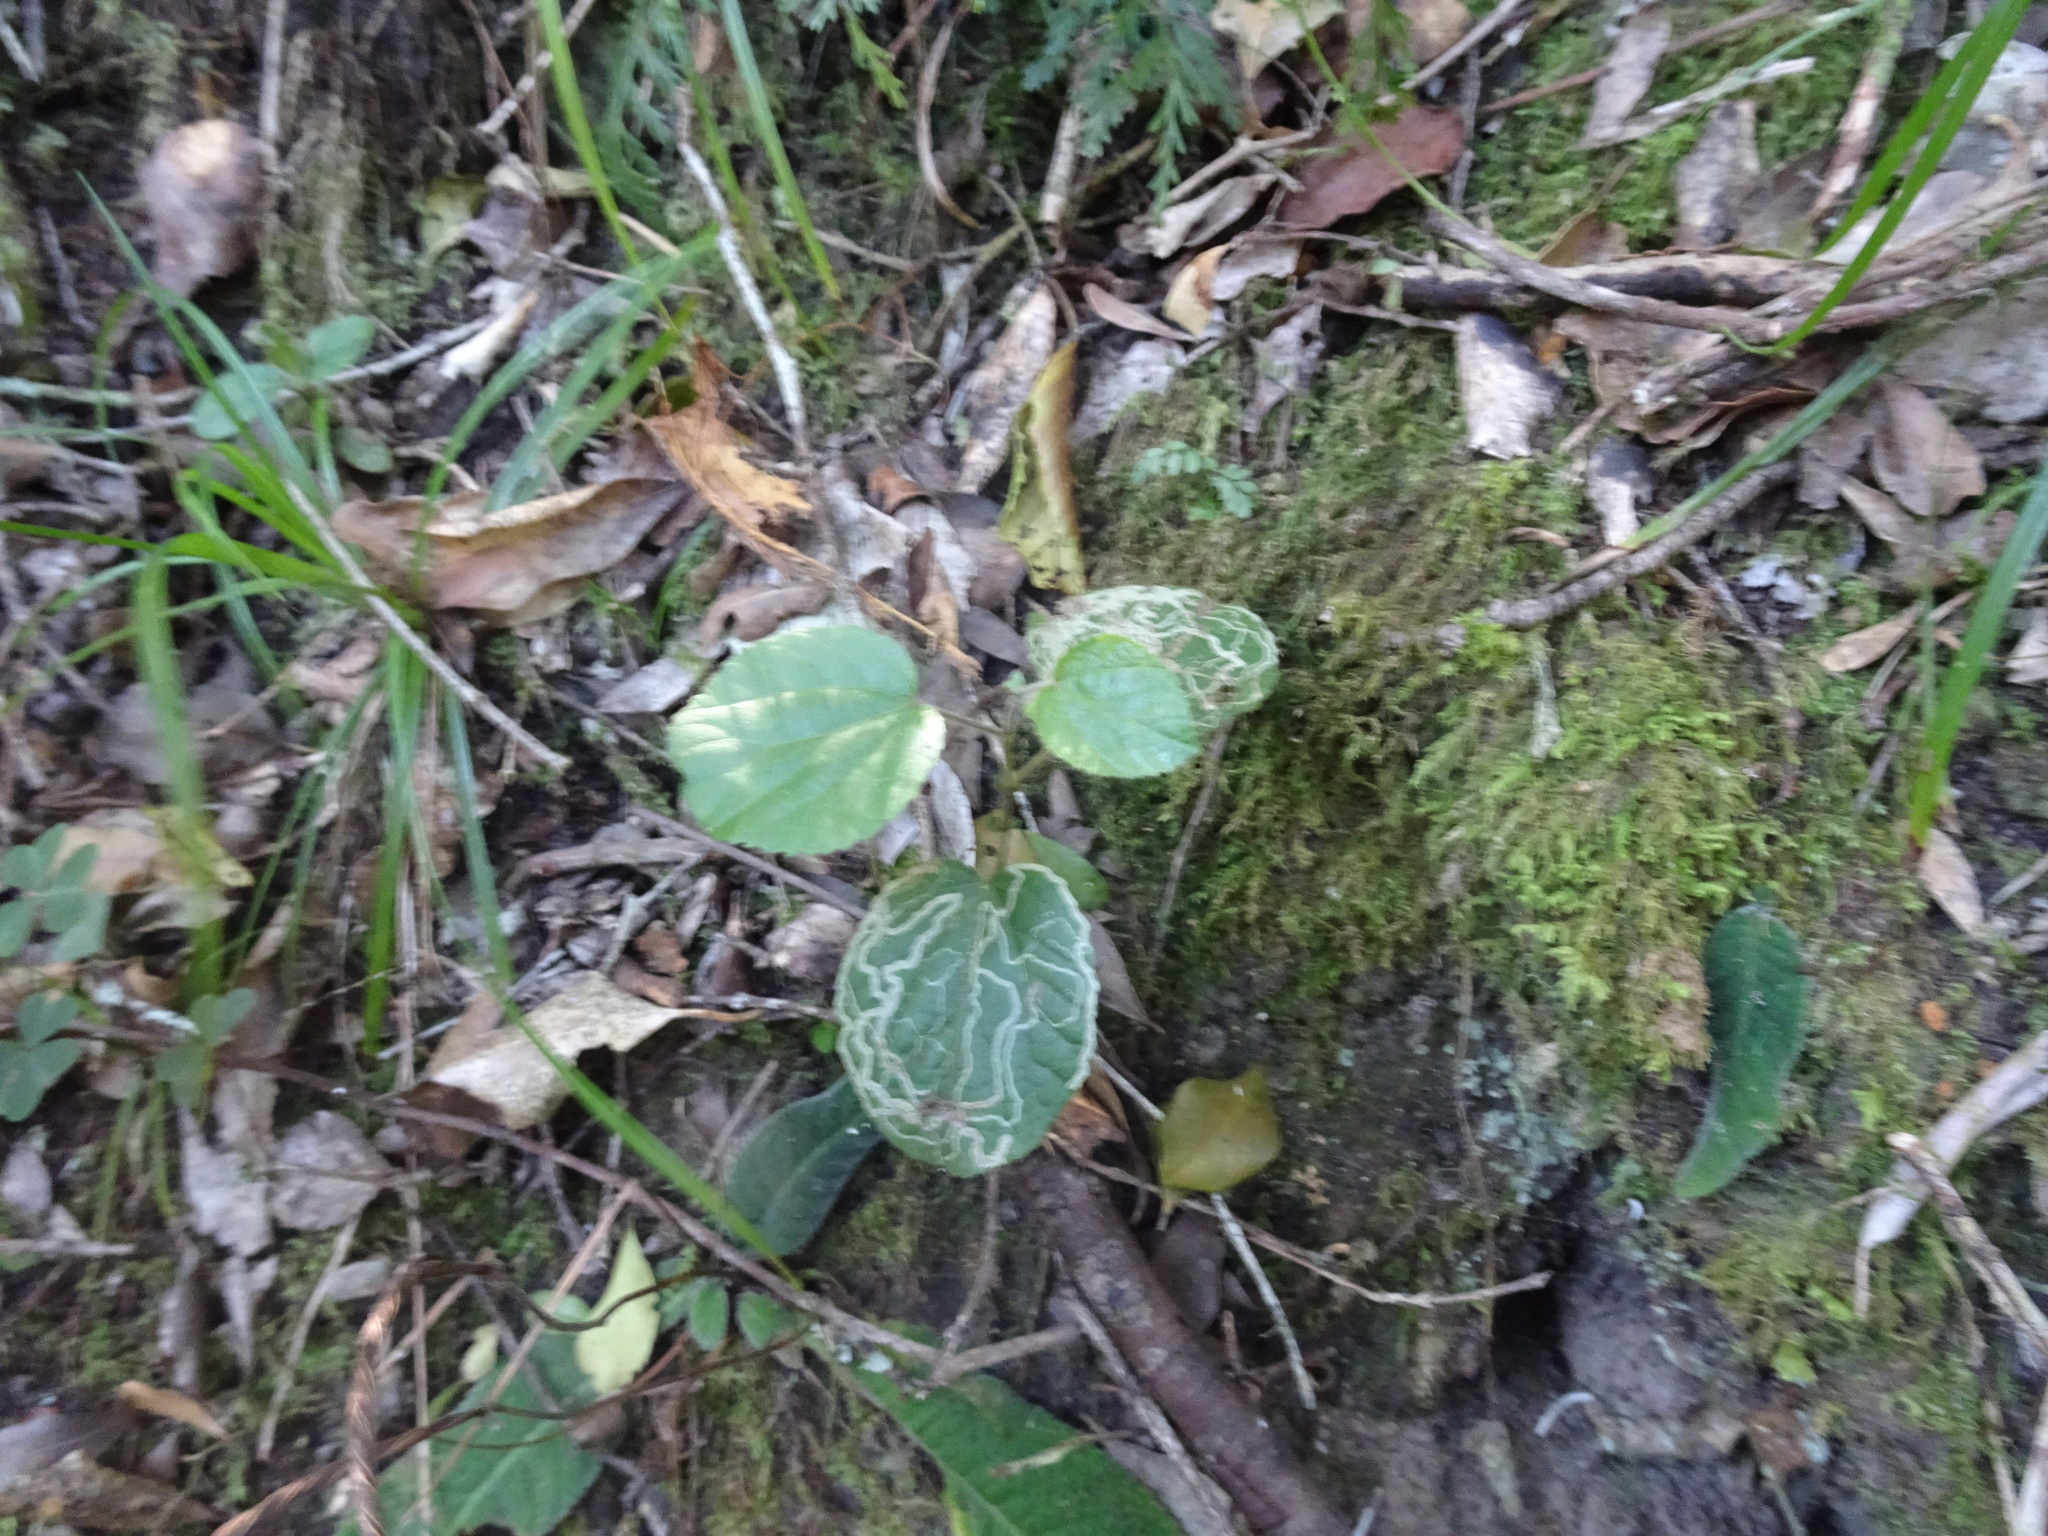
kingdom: Plantae
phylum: Tracheophyta
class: Magnoliopsida
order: Malpighiales
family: Salicaceae
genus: Trimeria
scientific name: Trimeria grandifolia
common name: Wild mulberry
